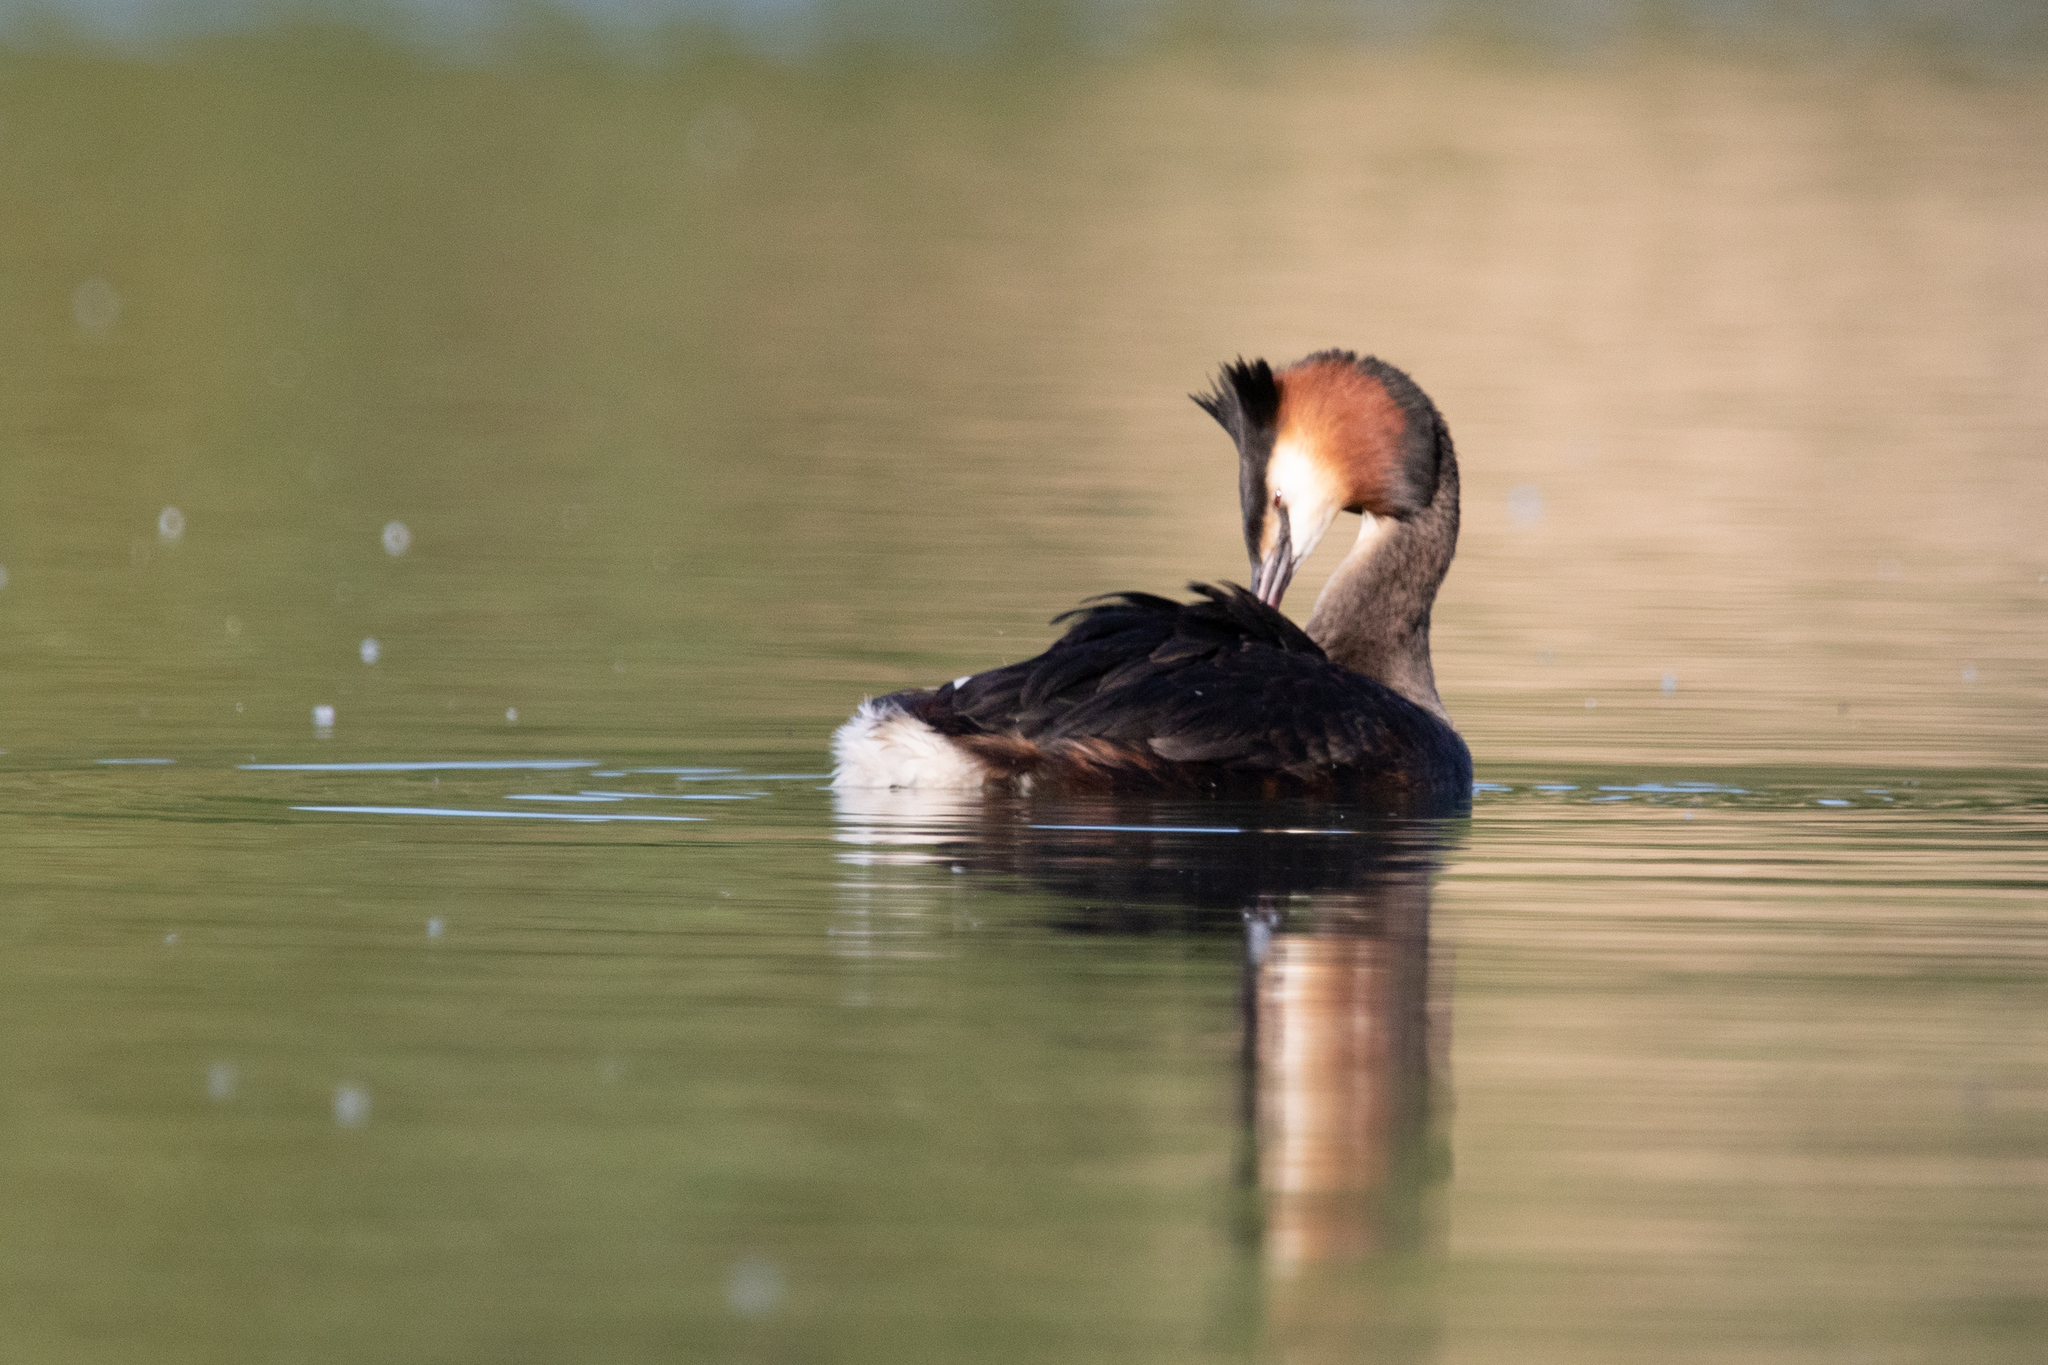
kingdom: Animalia
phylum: Chordata
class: Aves
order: Podicipediformes
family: Podicipedidae
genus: Podiceps
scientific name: Podiceps cristatus
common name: Great crested grebe
